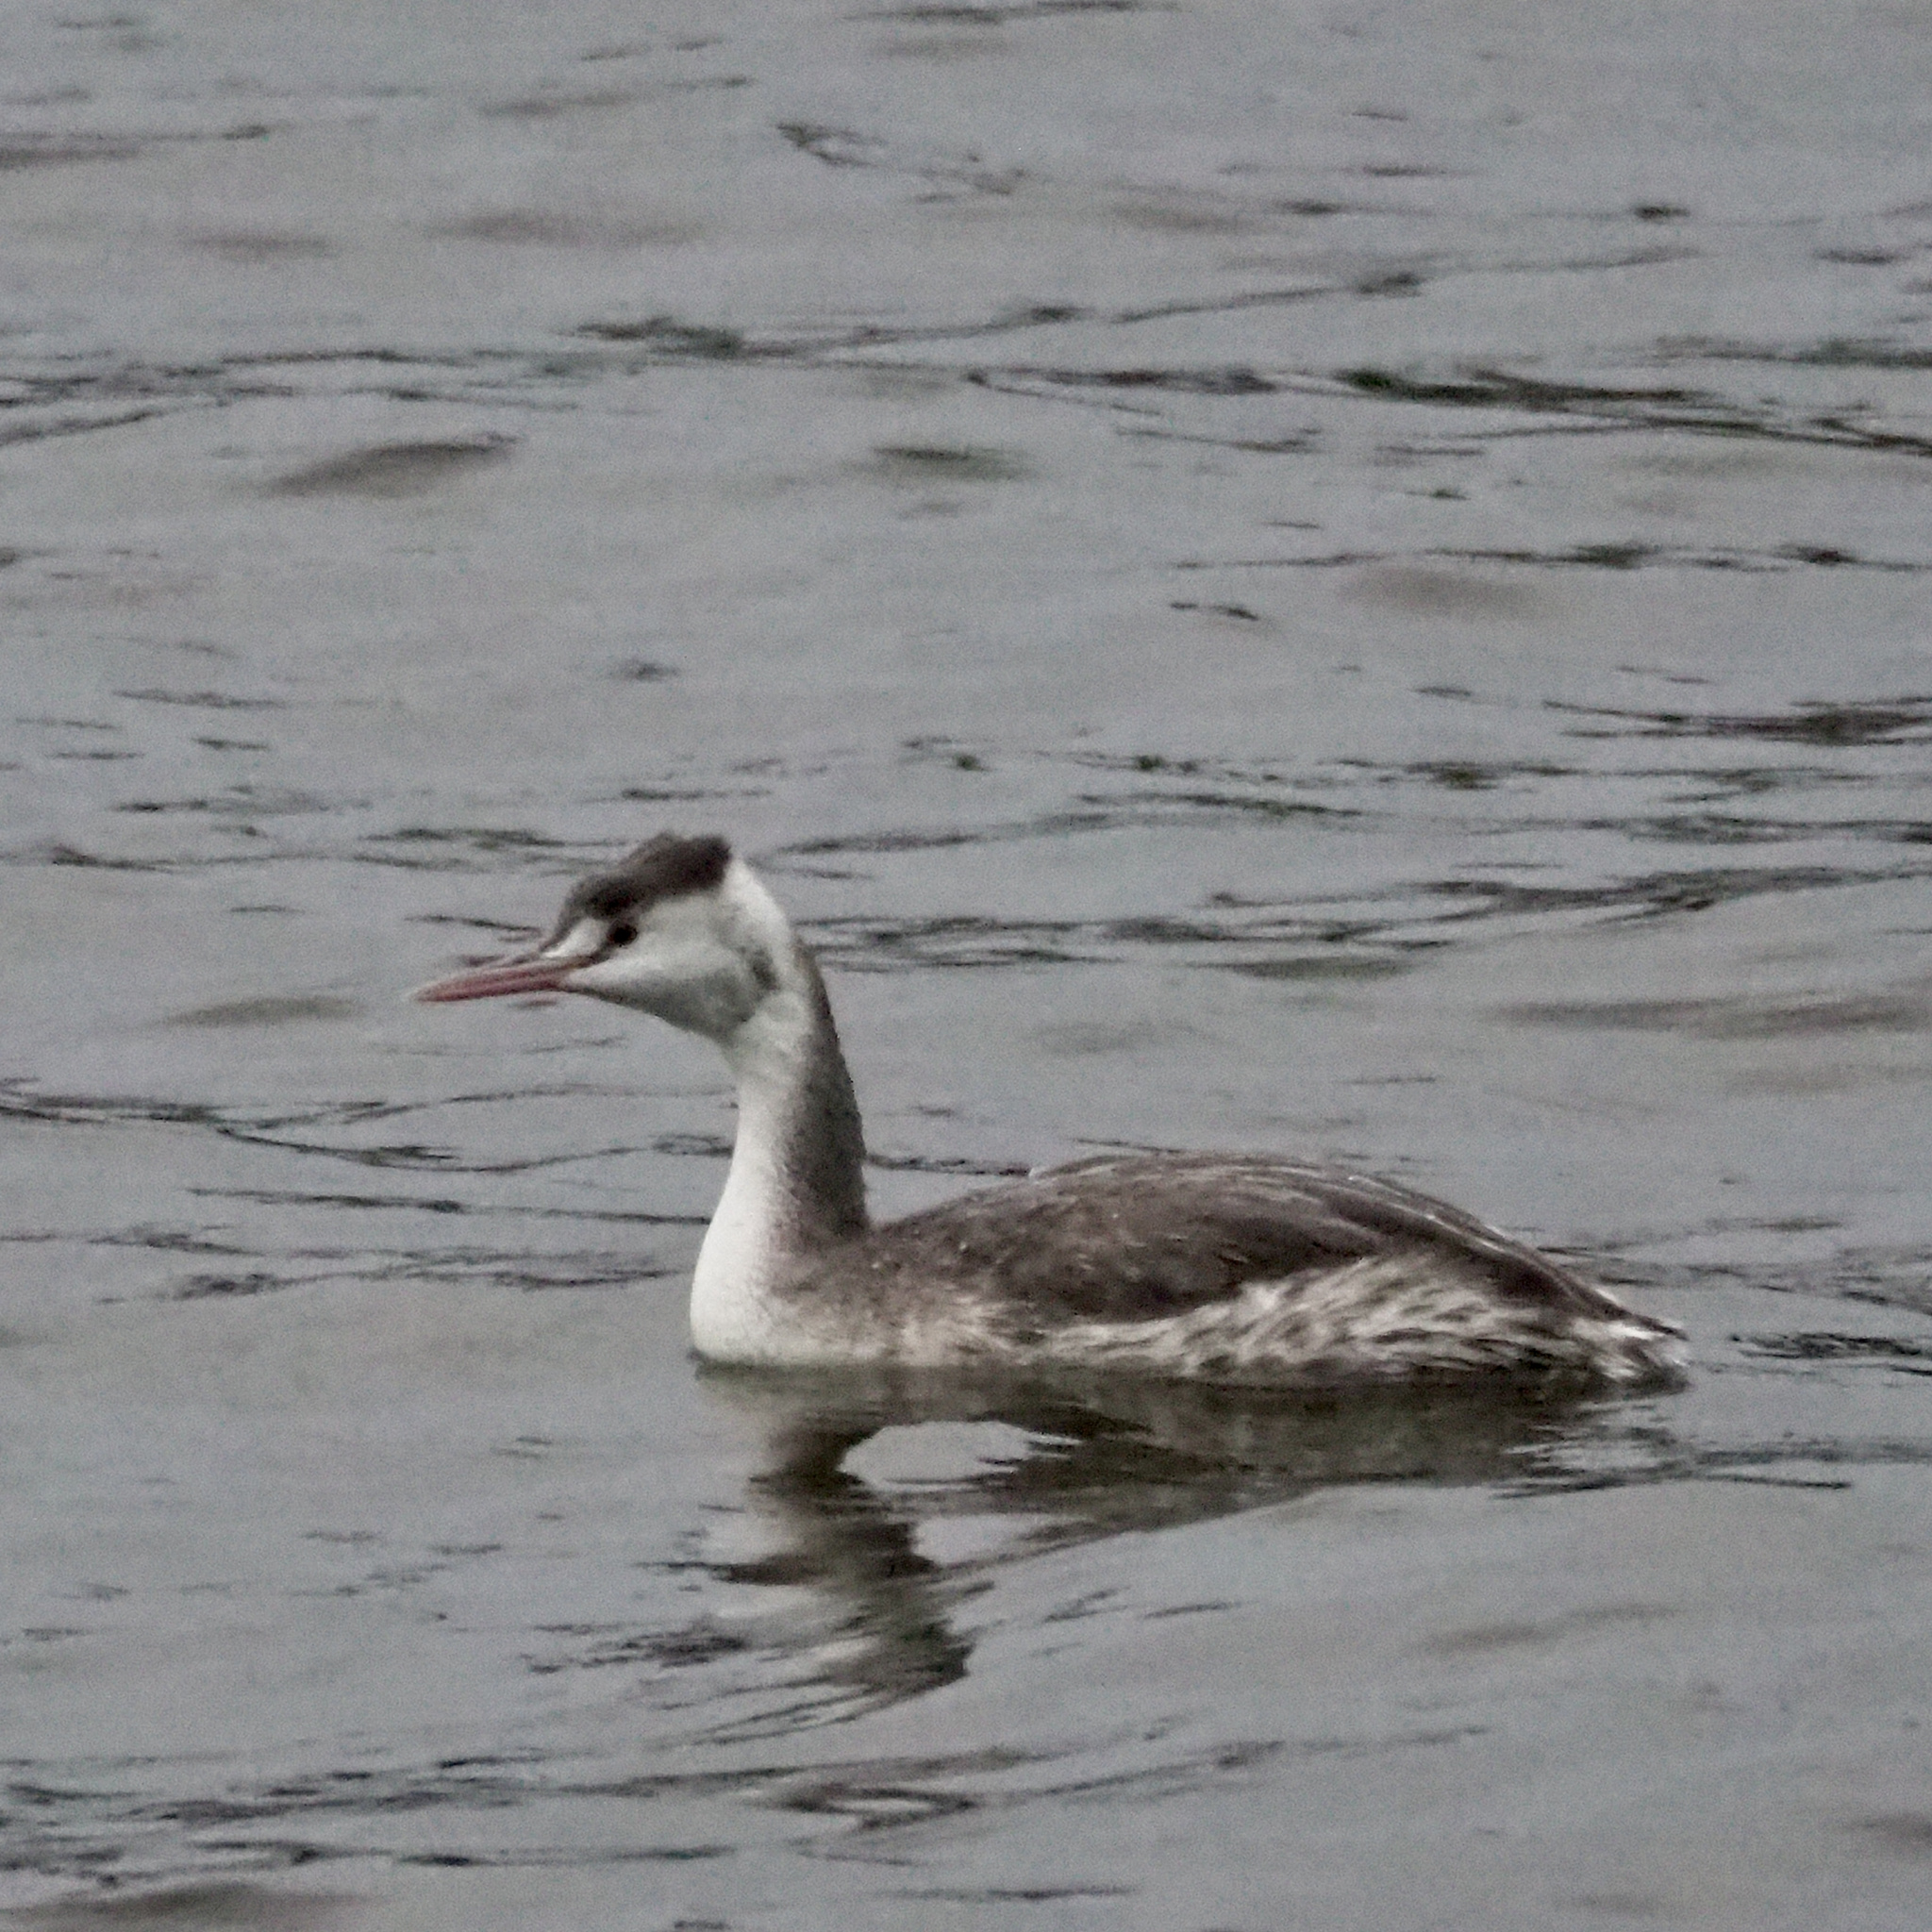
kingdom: Animalia
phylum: Chordata
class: Aves
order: Podicipediformes
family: Podicipedidae
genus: Podiceps
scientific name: Podiceps cristatus
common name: Great crested grebe
